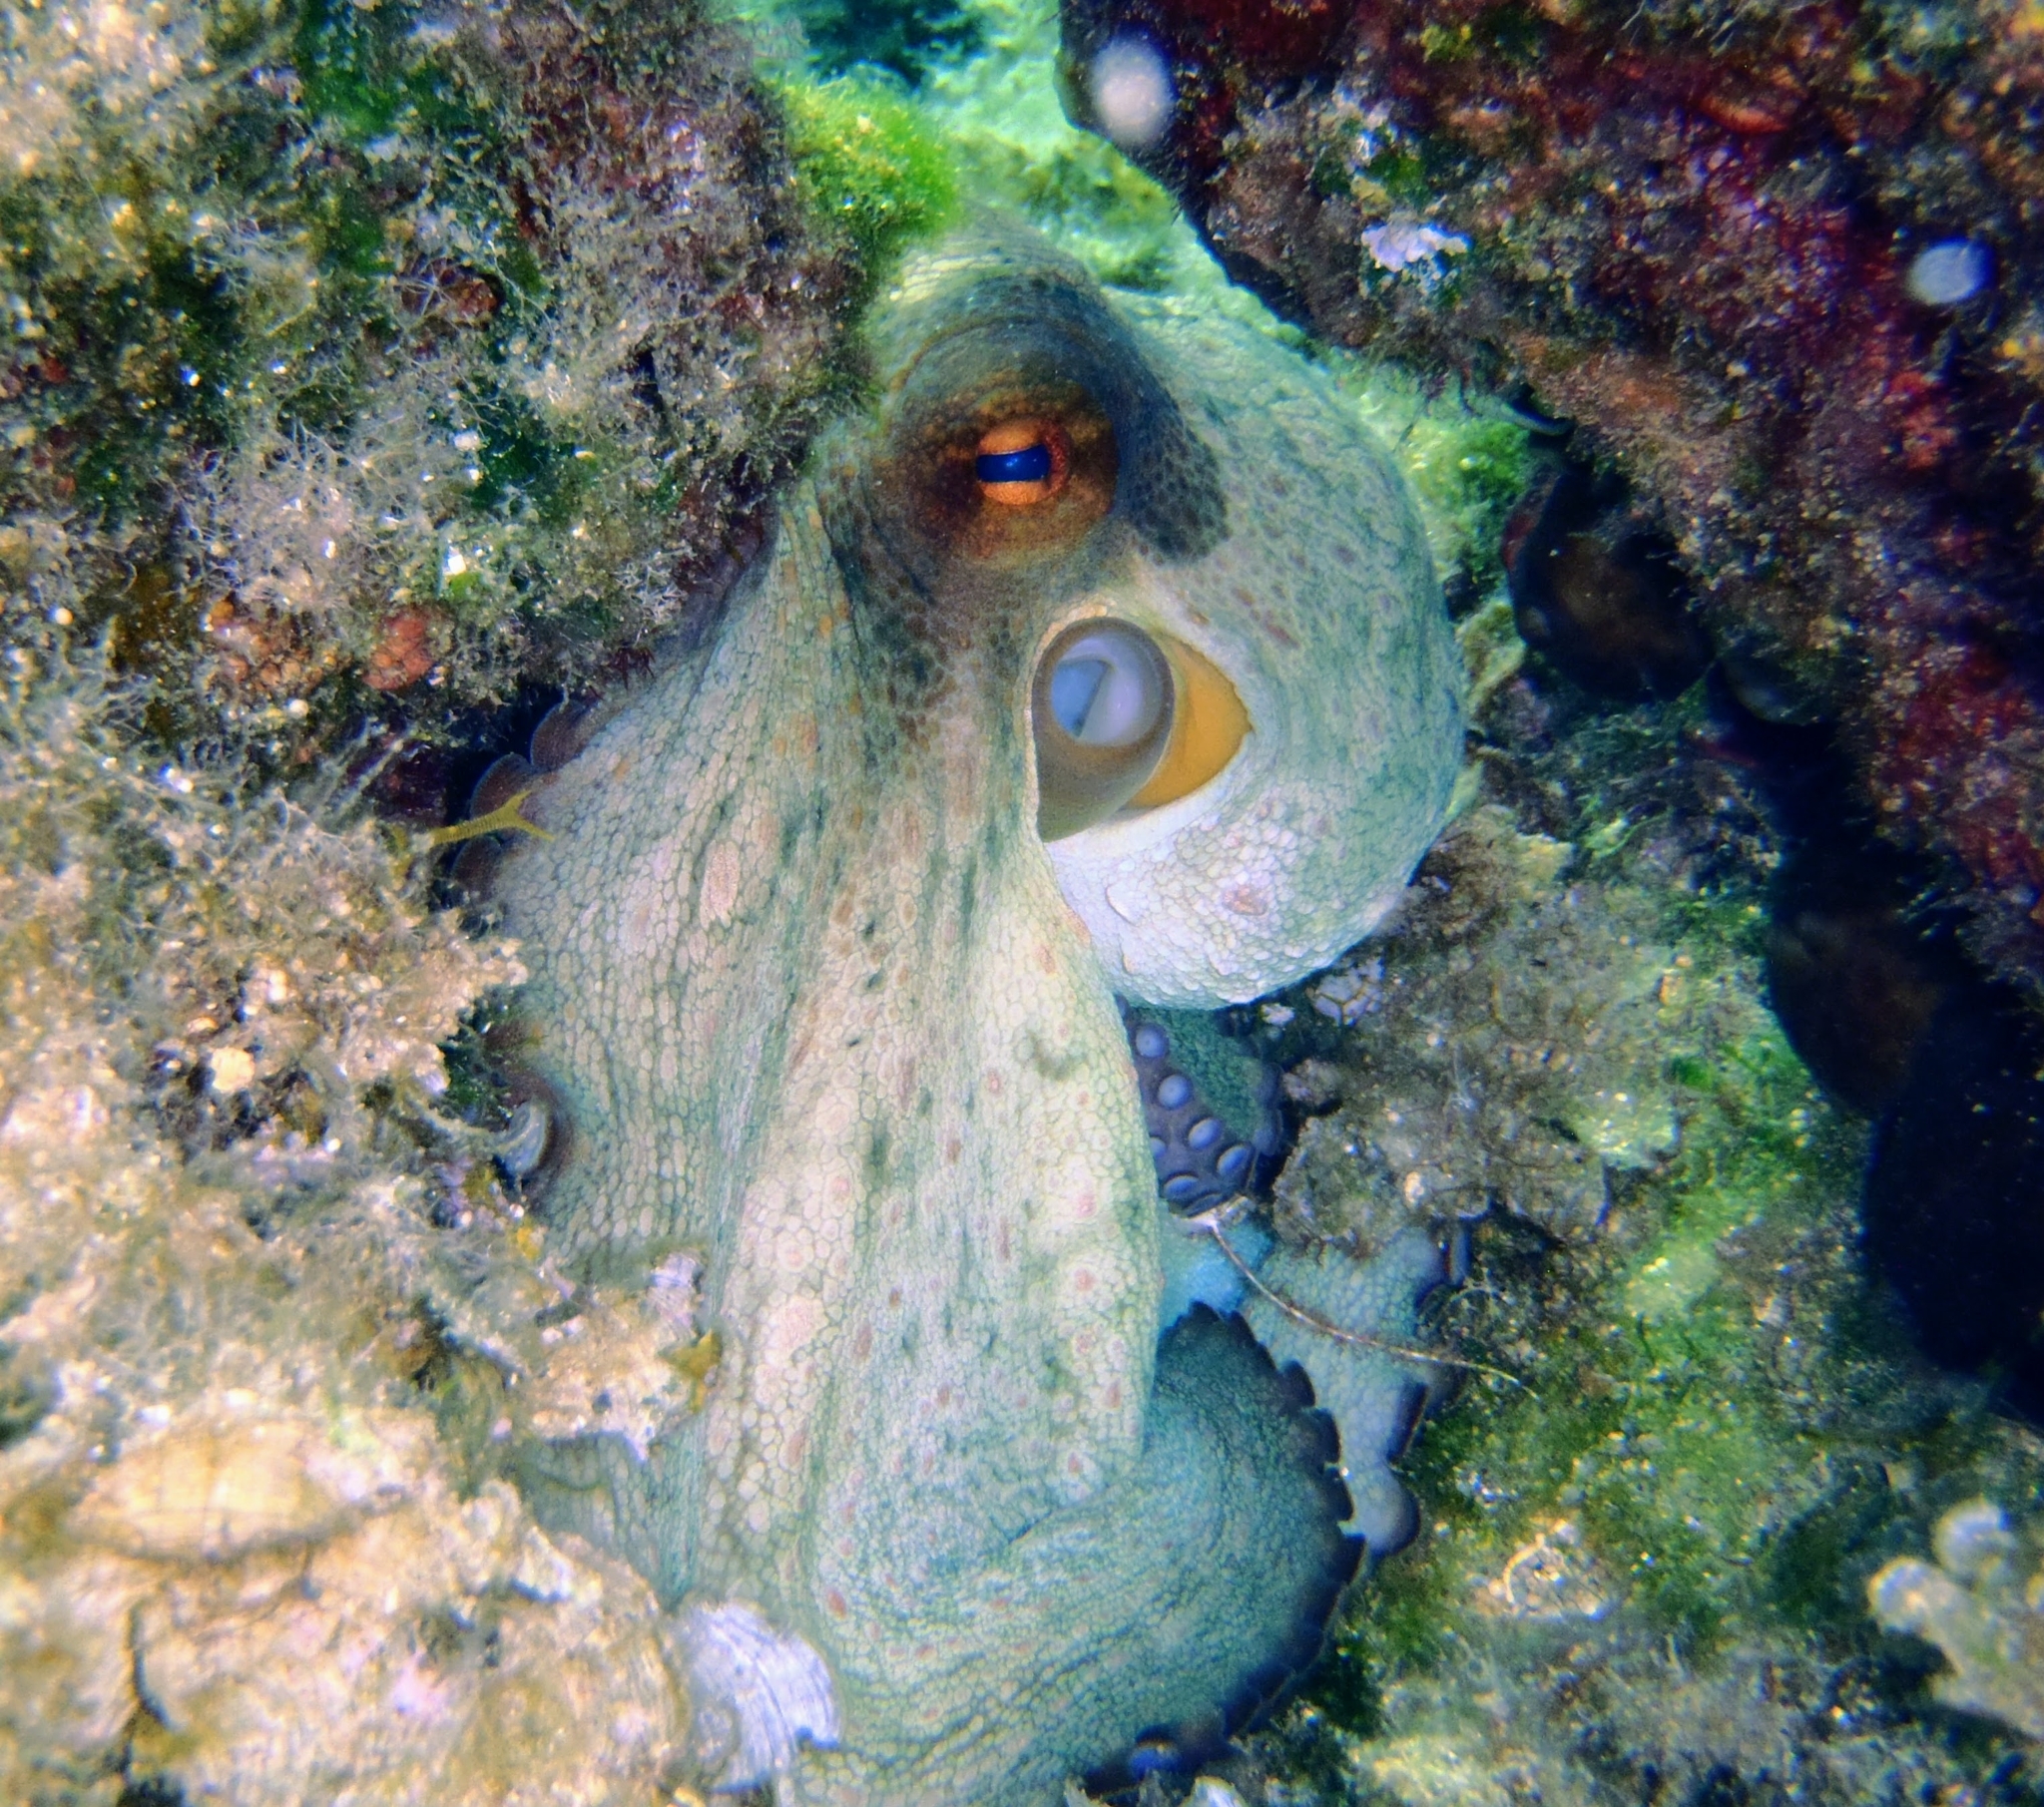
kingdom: Animalia
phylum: Mollusca
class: Cephalopoda
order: Octopoda
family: Octopodidae
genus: Octopus
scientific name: Octopus vulgaris
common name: Common octopus
